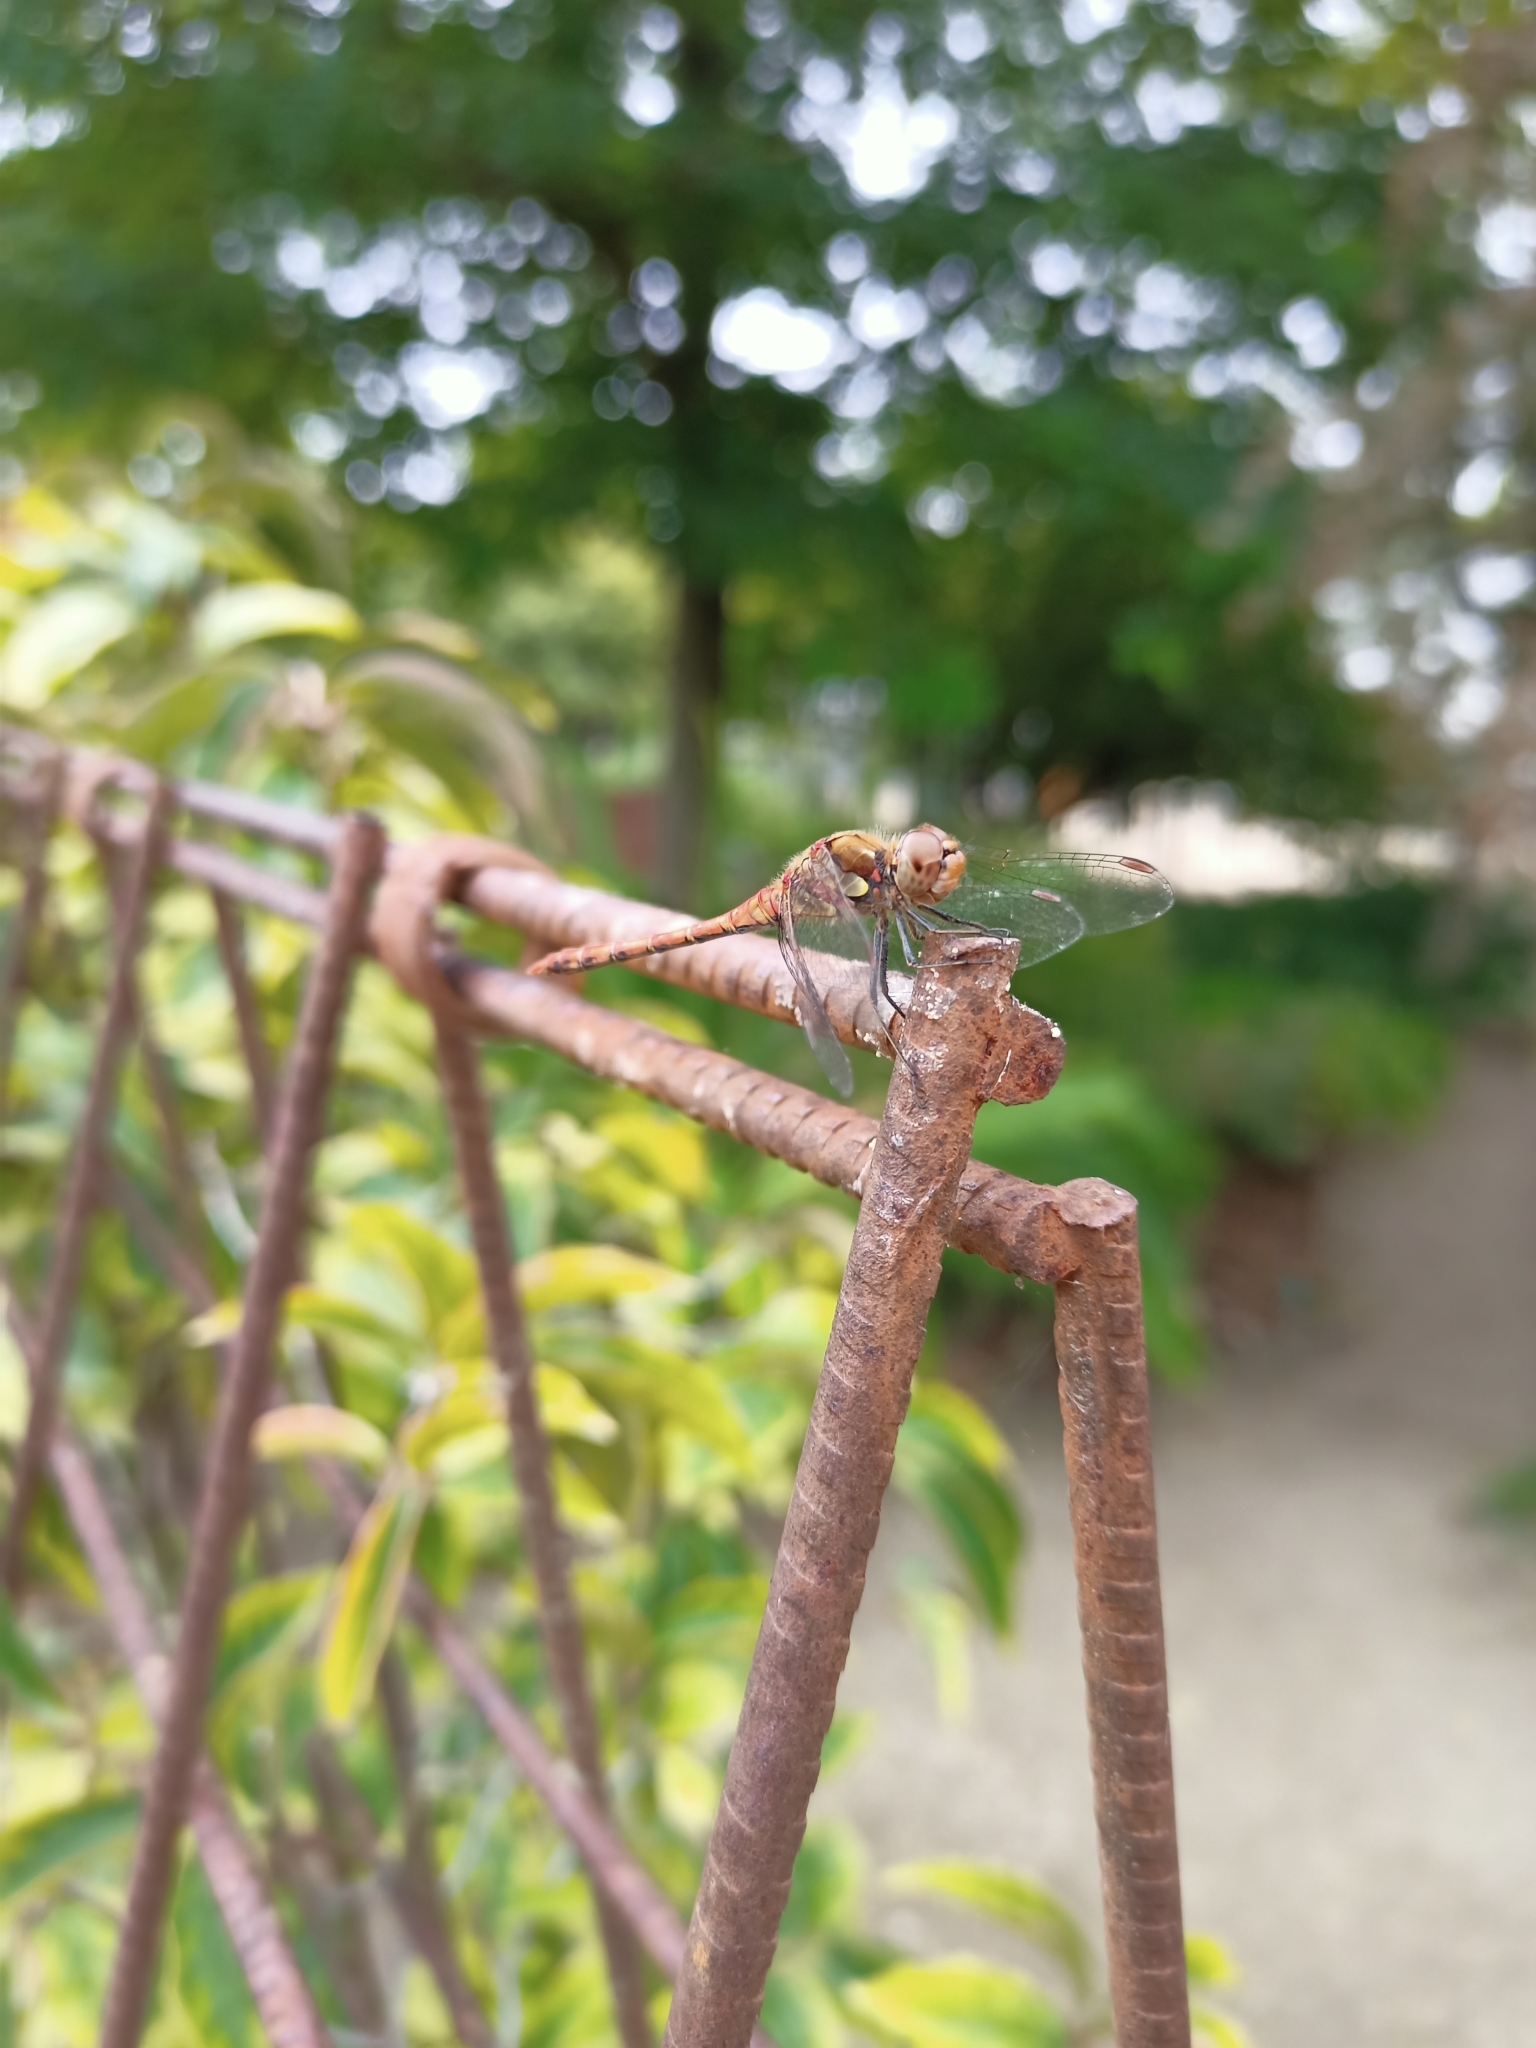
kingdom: Animalia
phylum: Arthropoda
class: Insecta
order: Odonata
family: Libellulidae
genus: Sympetrum
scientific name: Sympetrum striolatum
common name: Common darter
